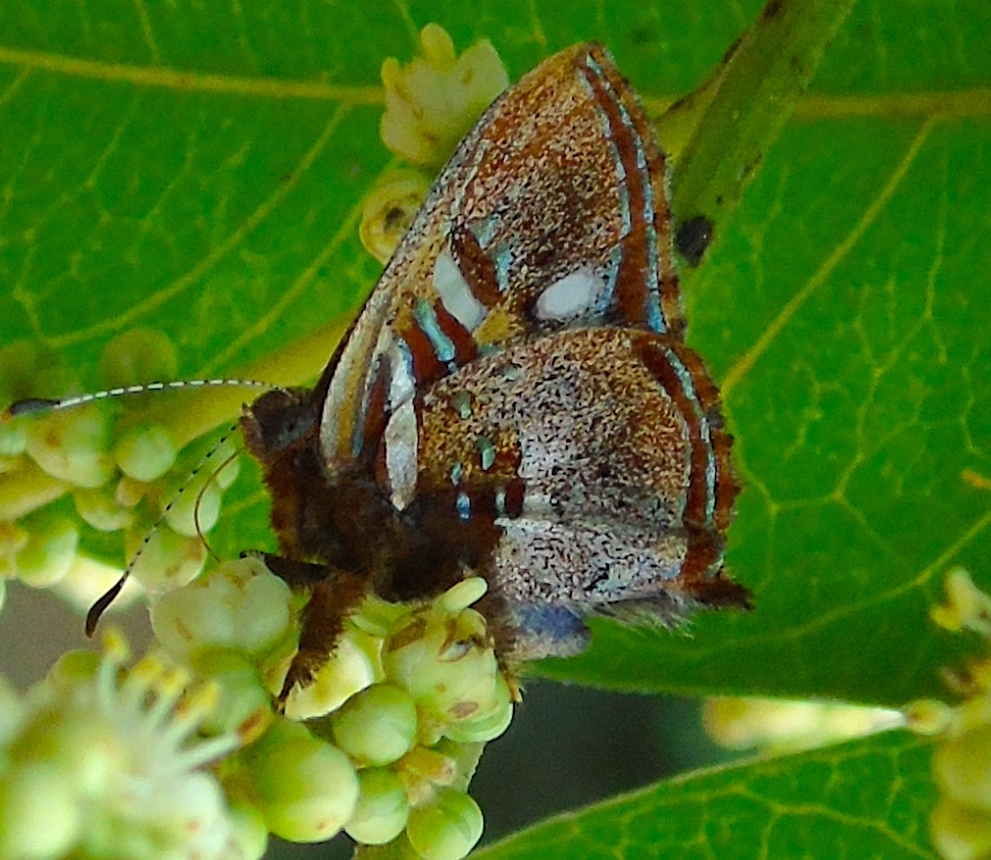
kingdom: Animalia
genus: Anteros
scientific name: Anteros carausius
